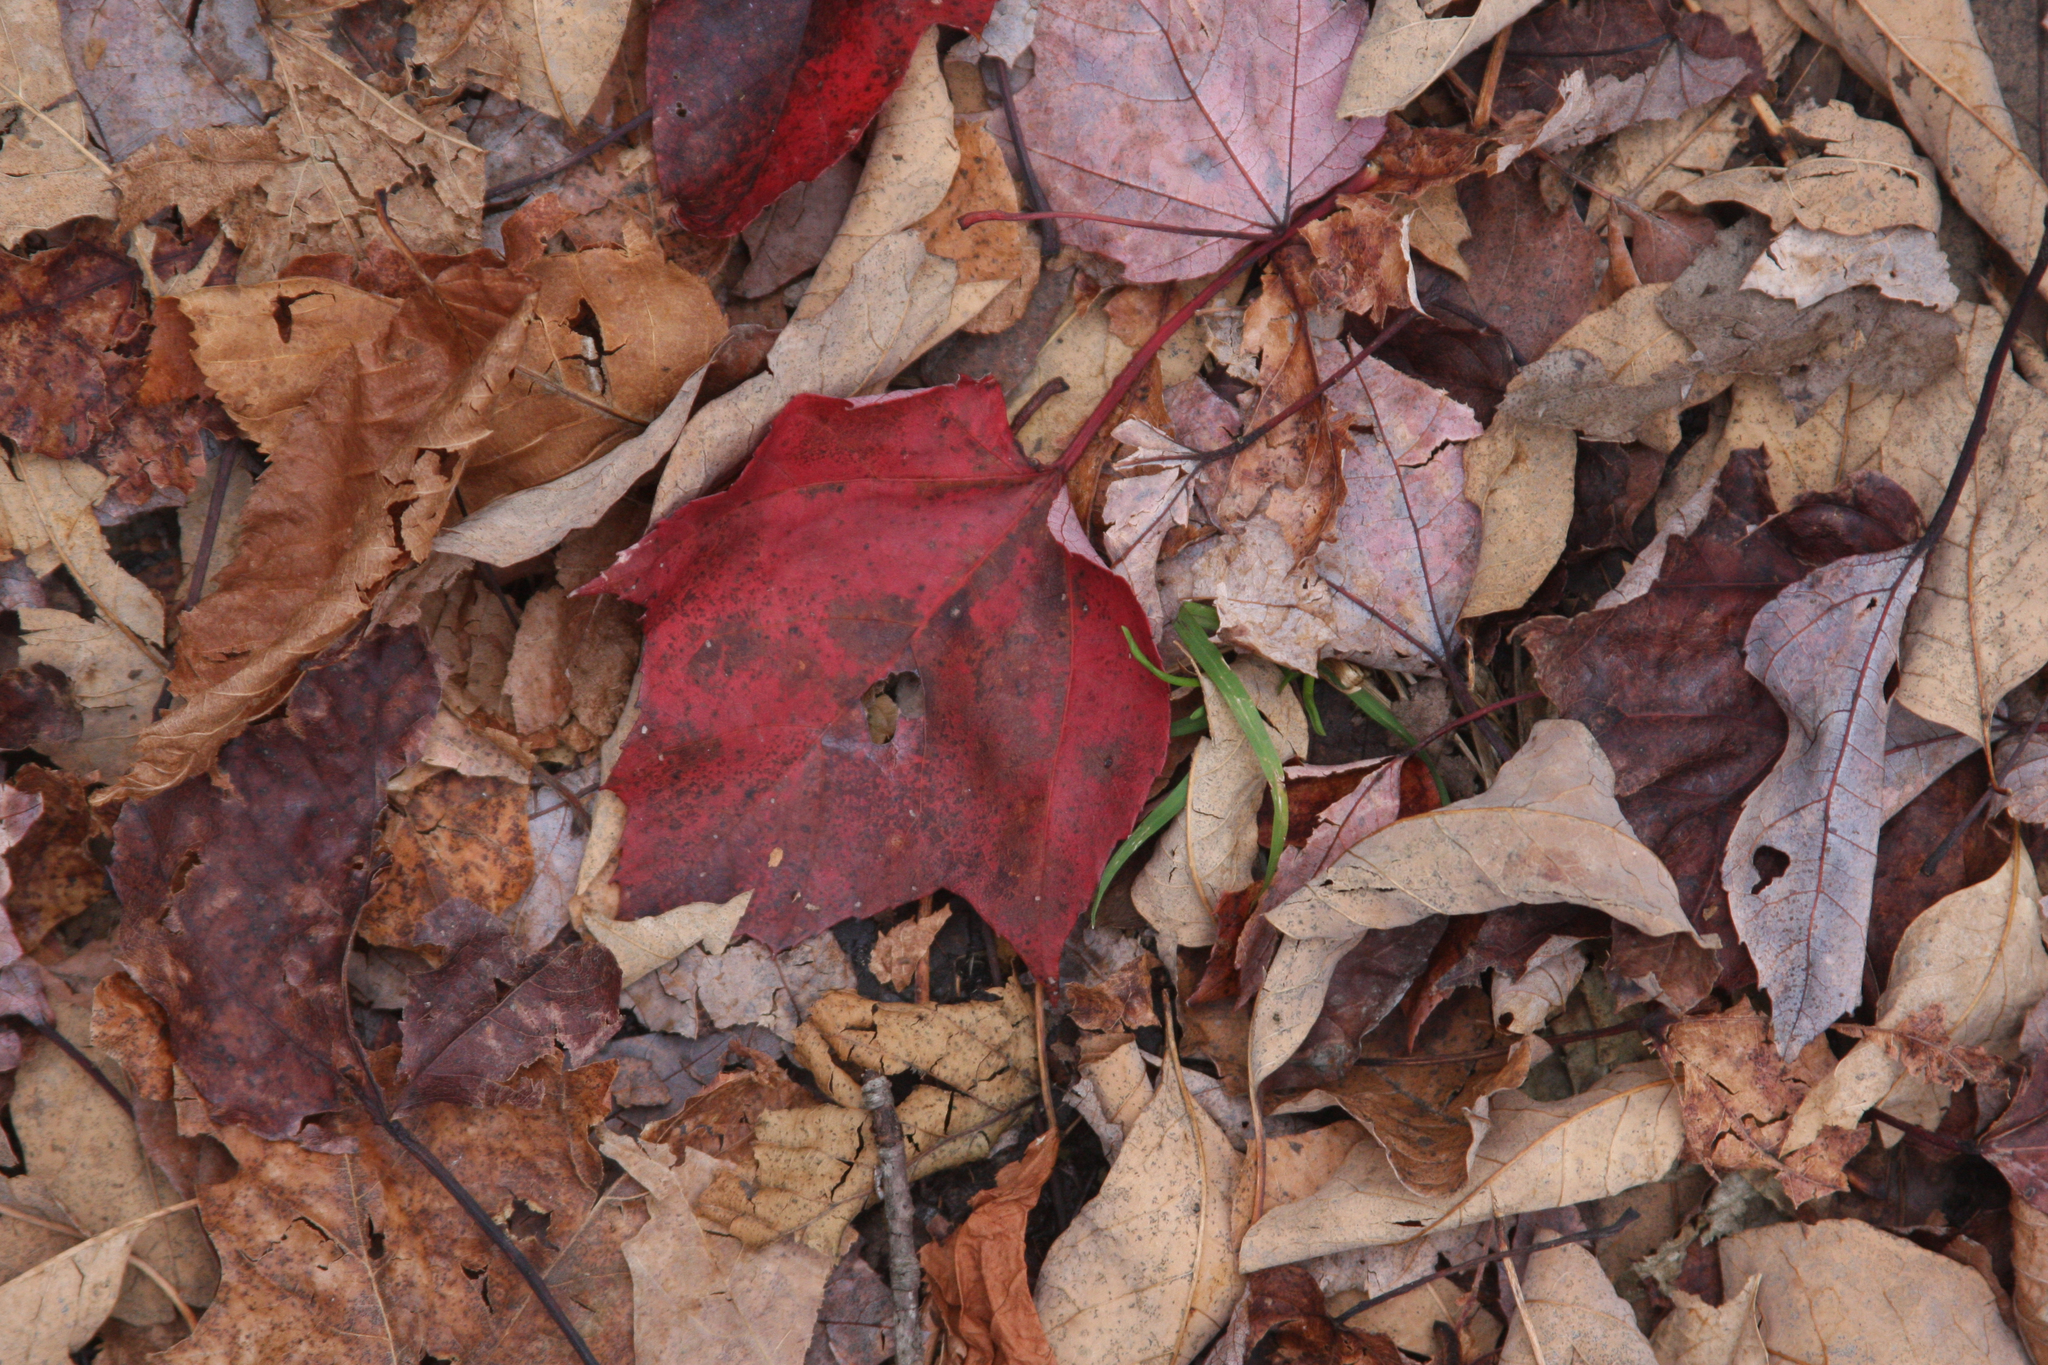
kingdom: Plantae
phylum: Tracheophyta
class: Magnoliopsida
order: Sapindales
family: Sapindaceae
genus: Acer
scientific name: Acer rubrum
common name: Red maple
